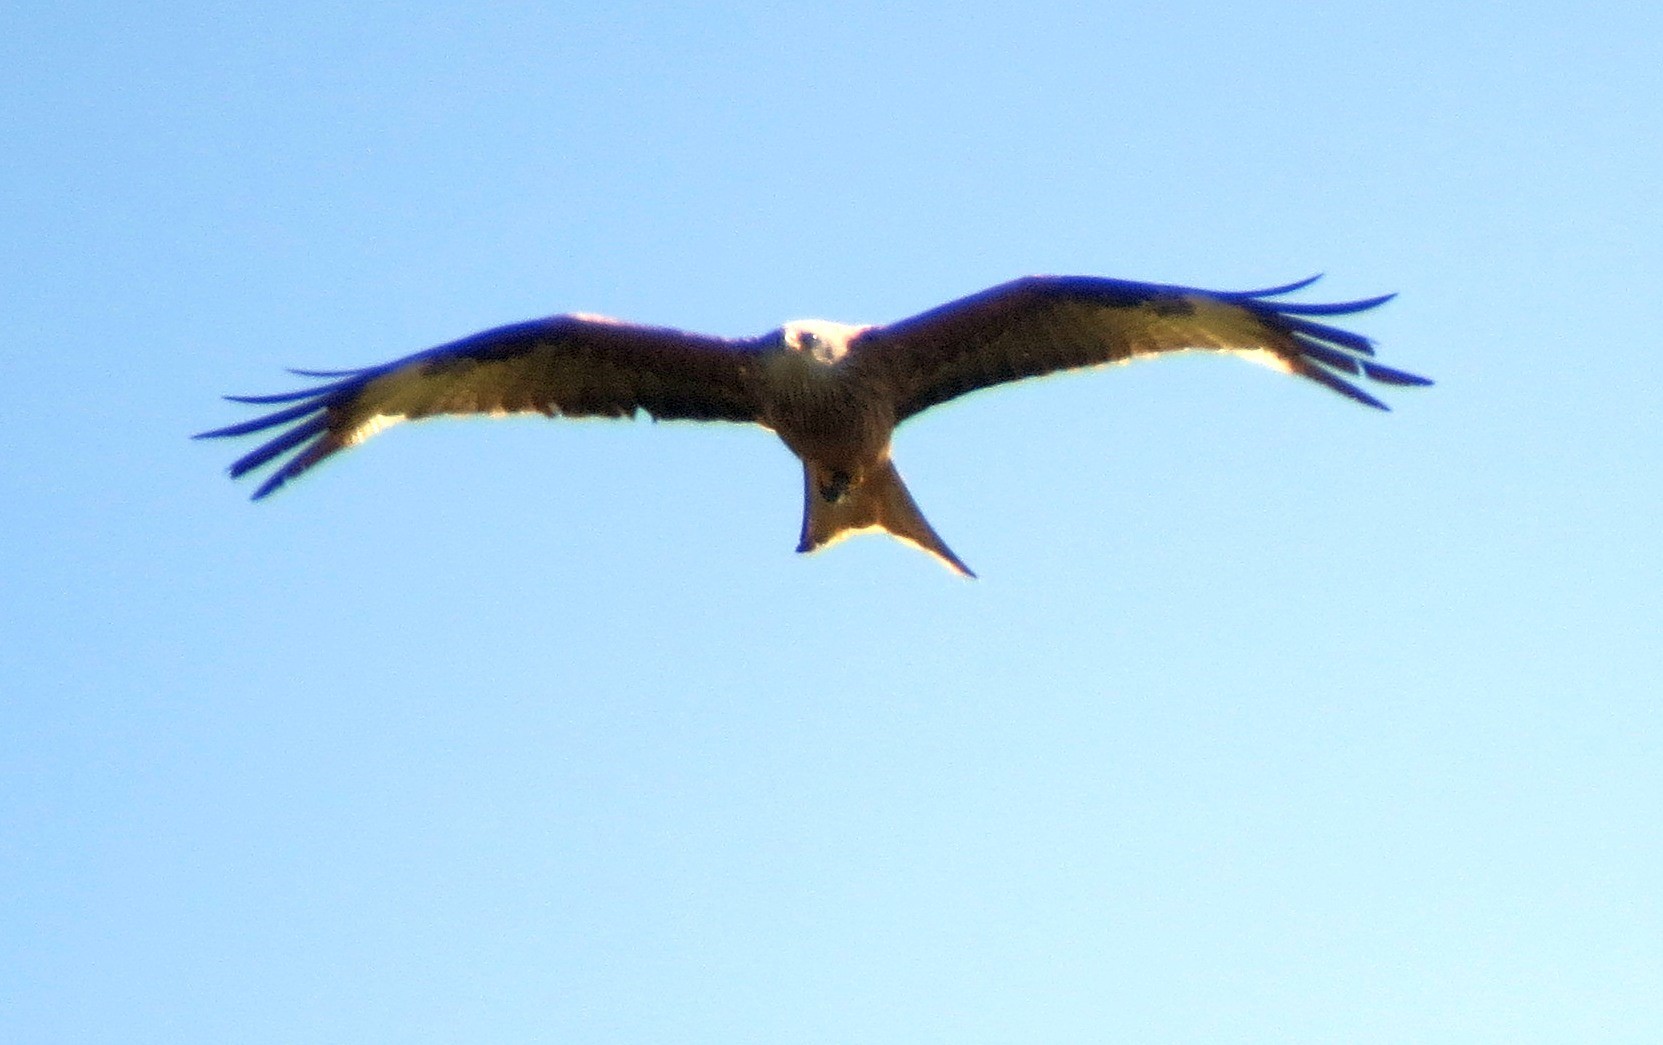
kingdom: Animalia
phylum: Chordata
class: Aves
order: Accipitriformes
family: Accipitridae
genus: Milvus
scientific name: Milvus milvus
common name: Red kite
